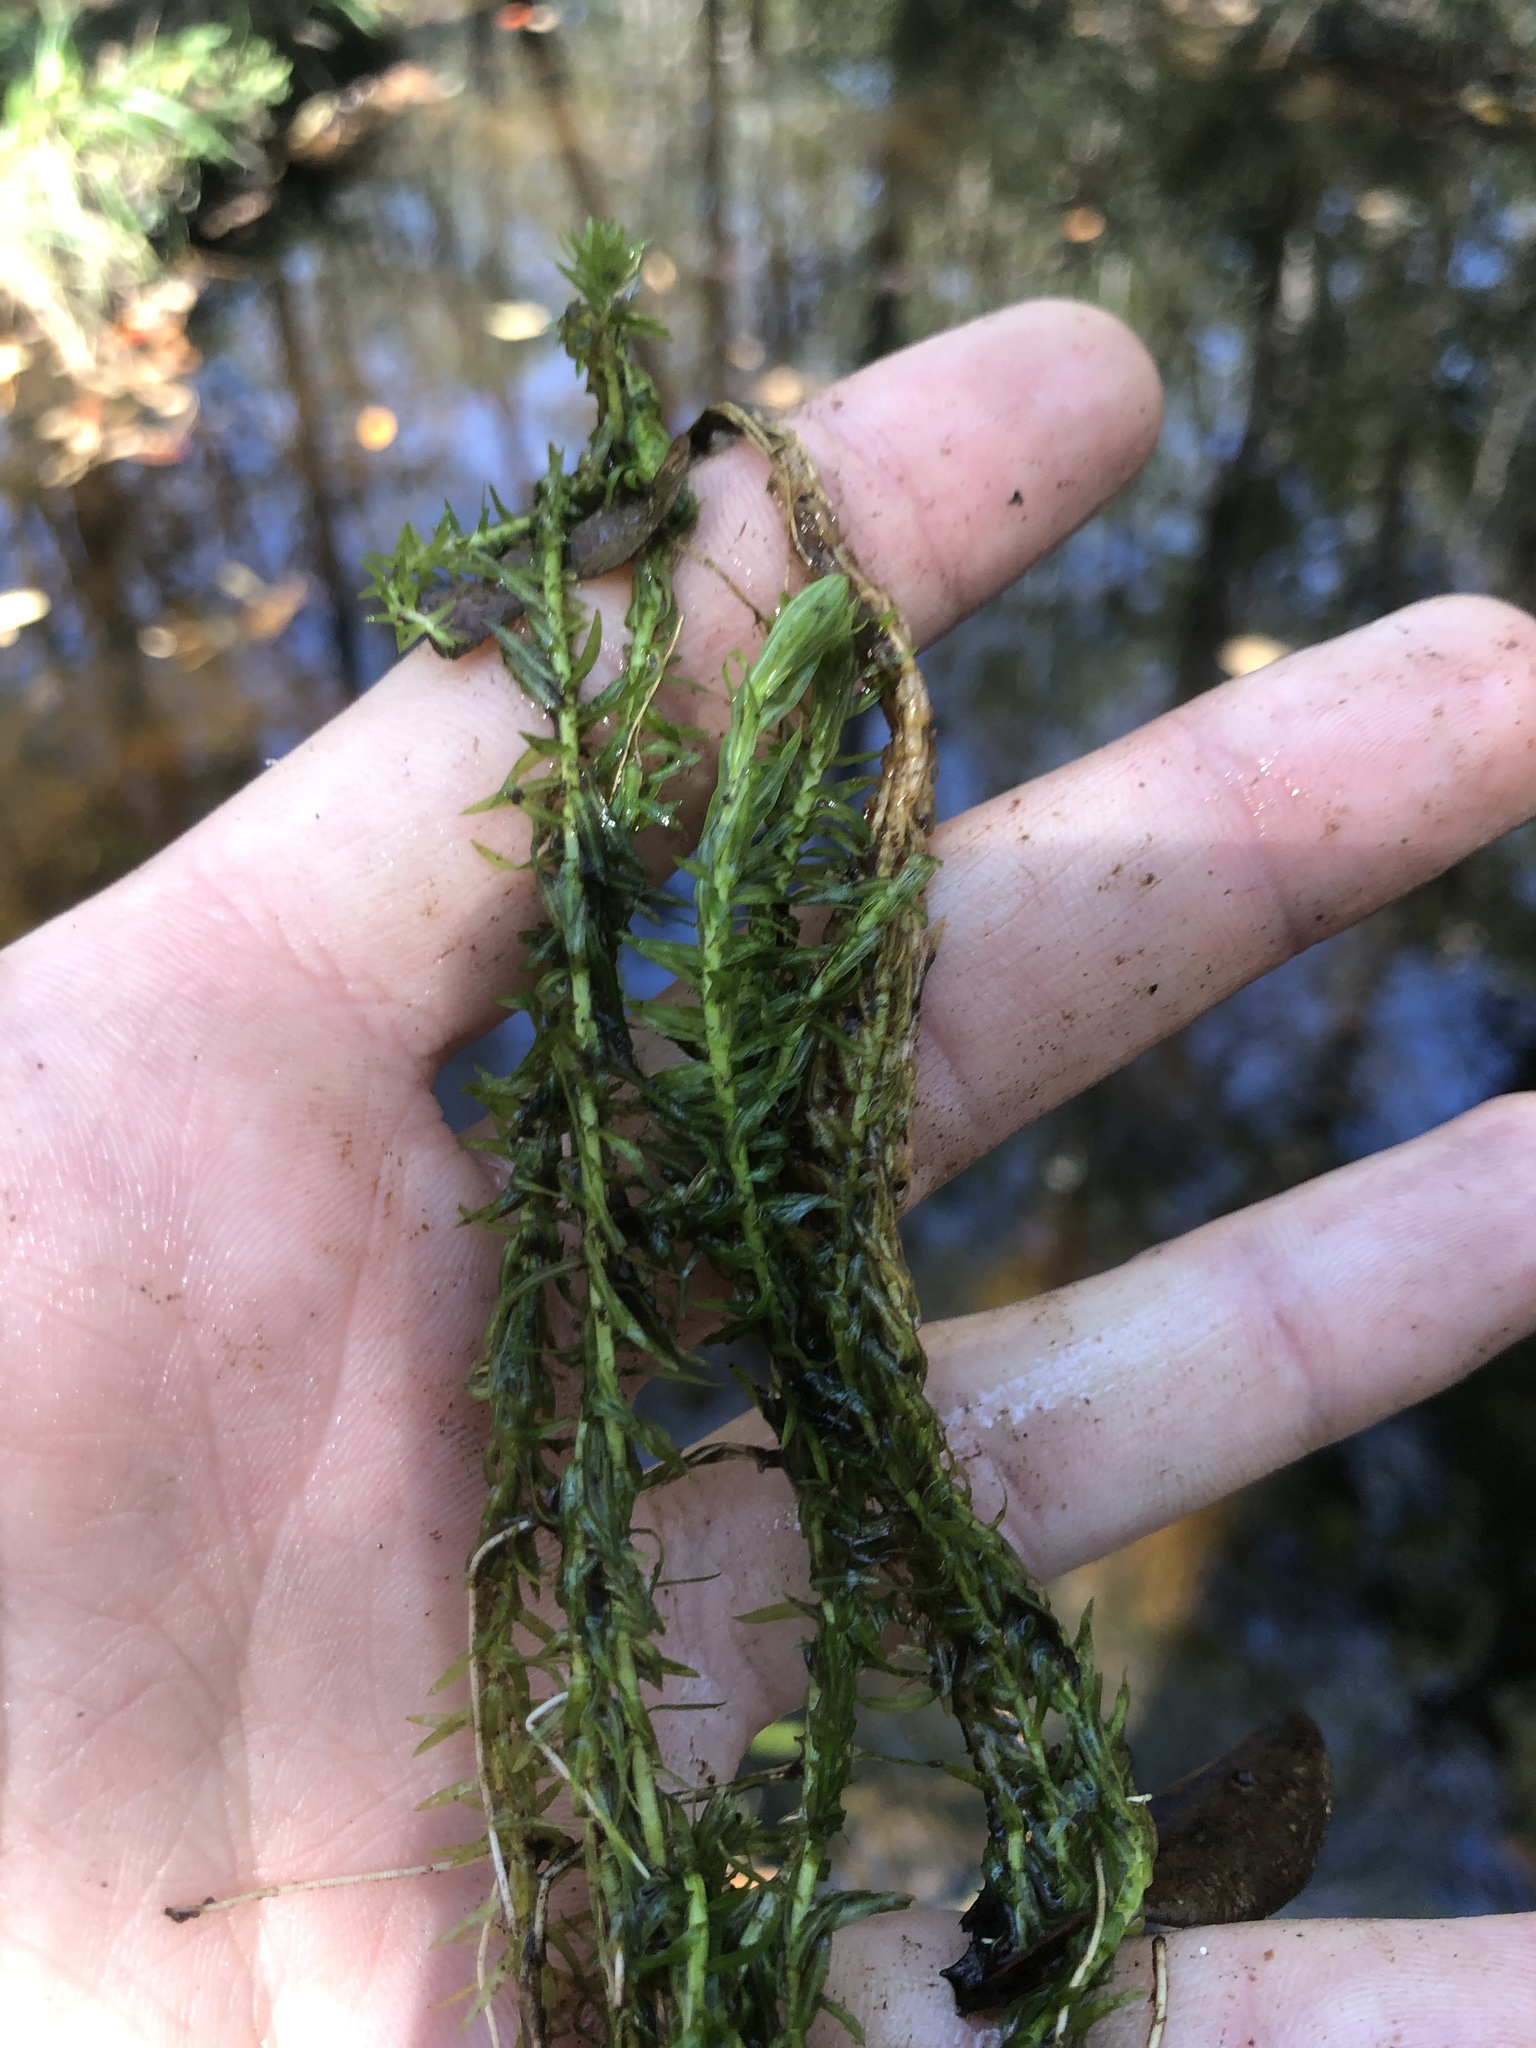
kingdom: Plantae
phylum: Tracheophyta
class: Liliopsida
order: Poales
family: Mayacaceae
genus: Mayaca
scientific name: Mayaca fluviatilis
